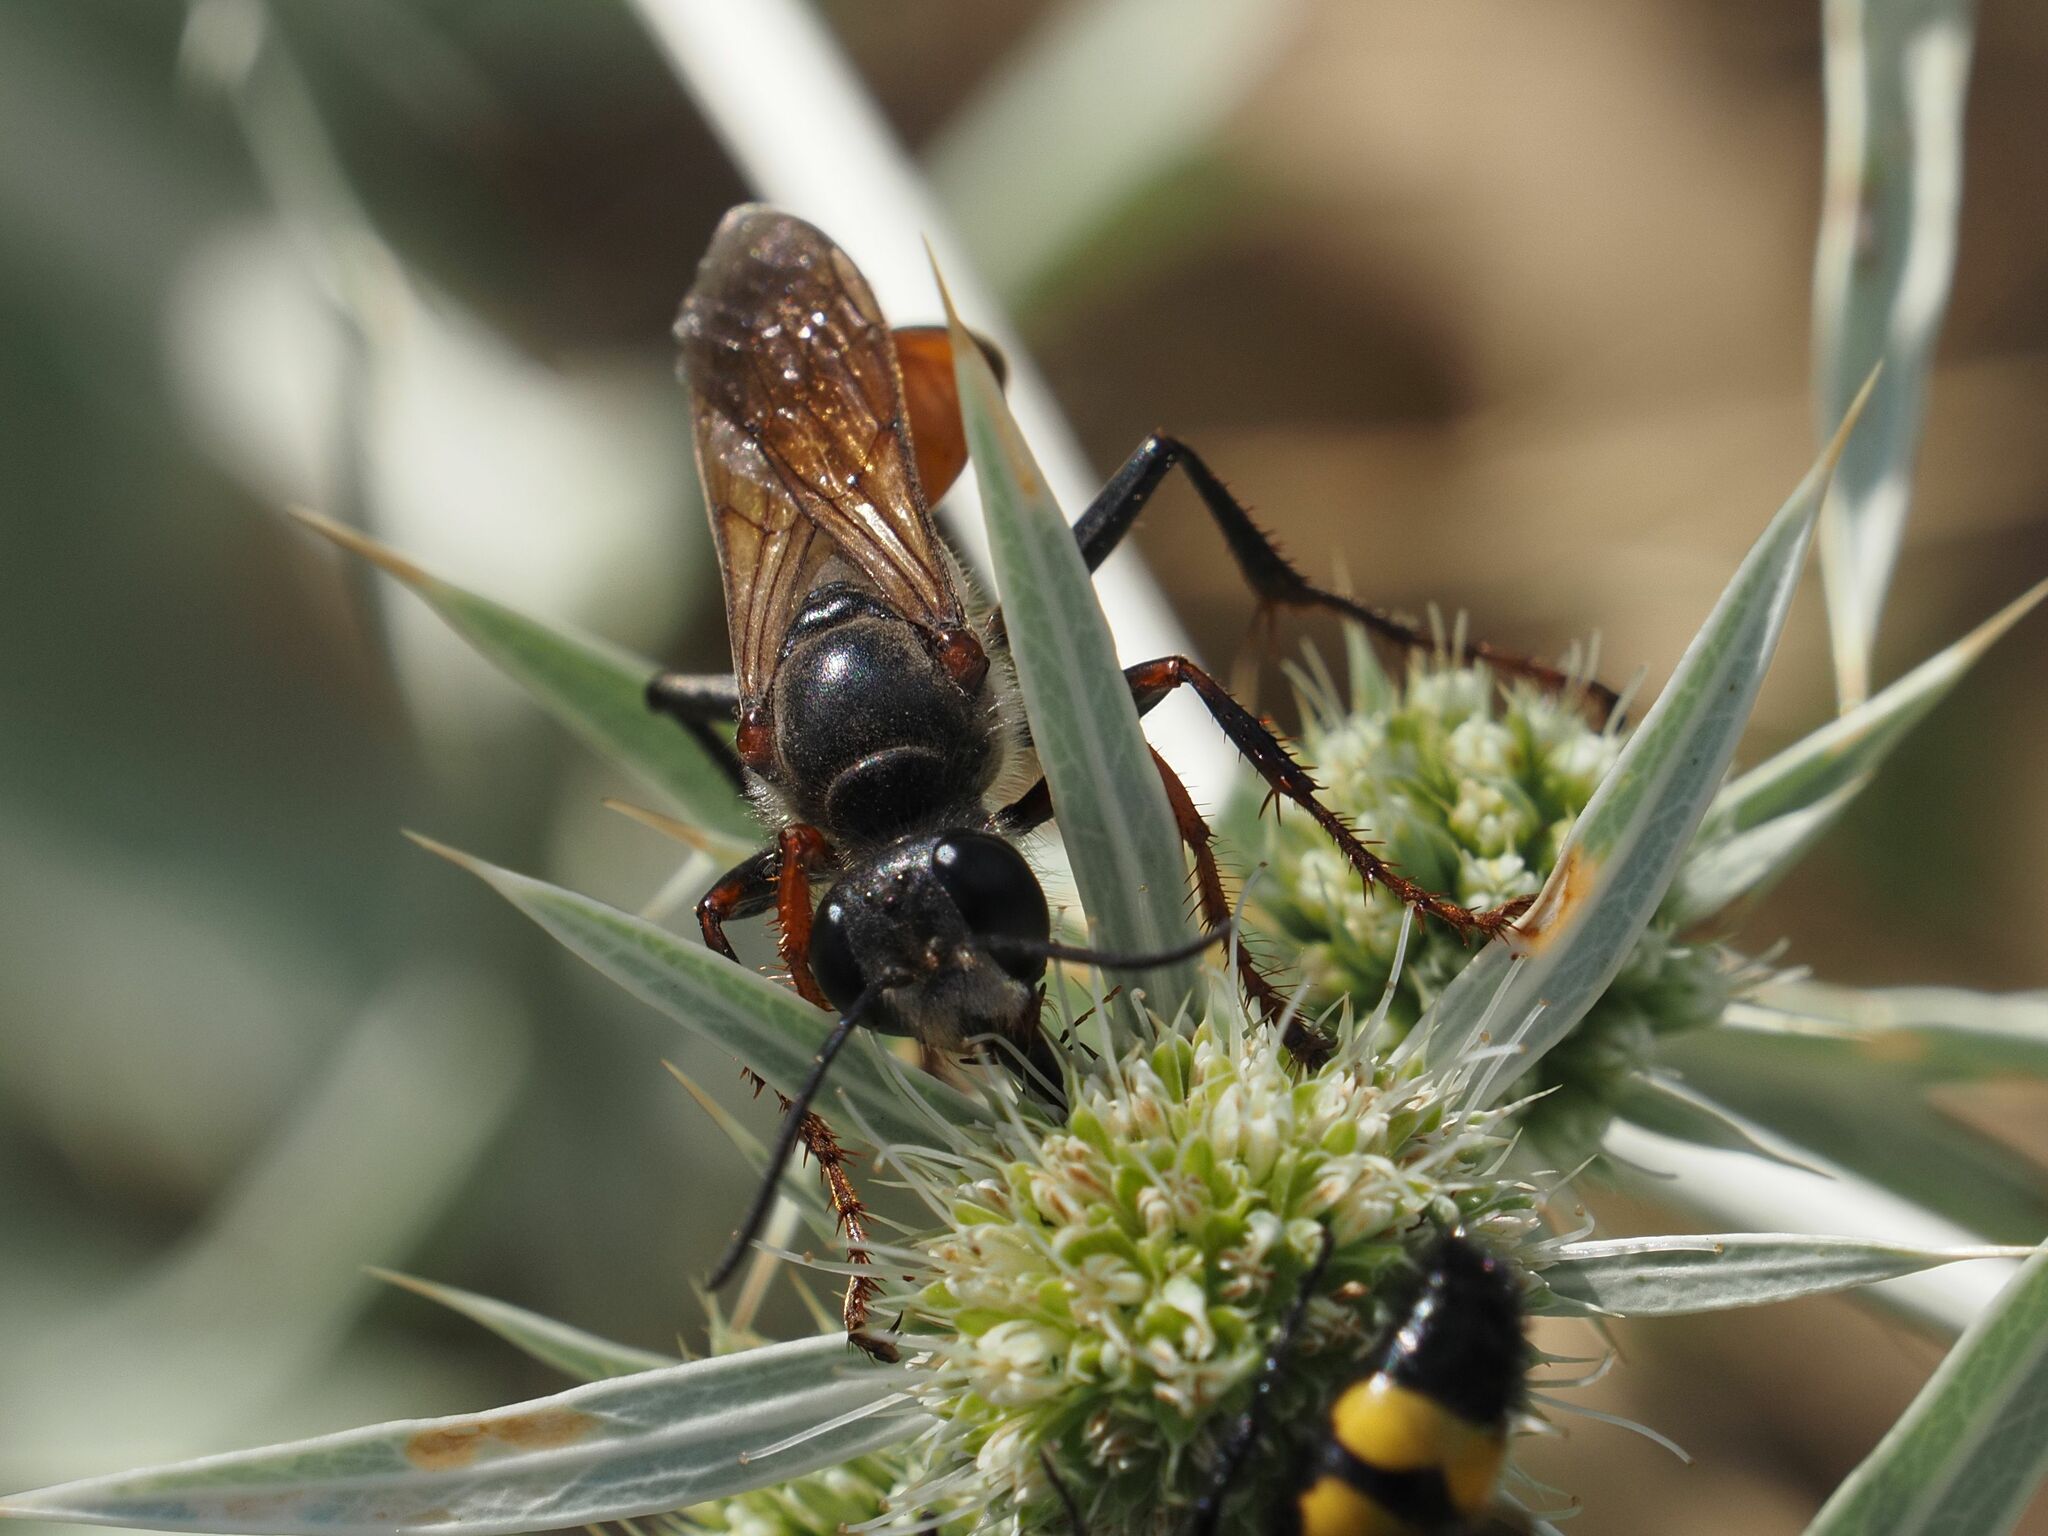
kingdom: Animalia
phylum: Arthropoda
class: Insecta
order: Hymenoptera
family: Sphecidae
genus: Sphex
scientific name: Sphex funerarius
